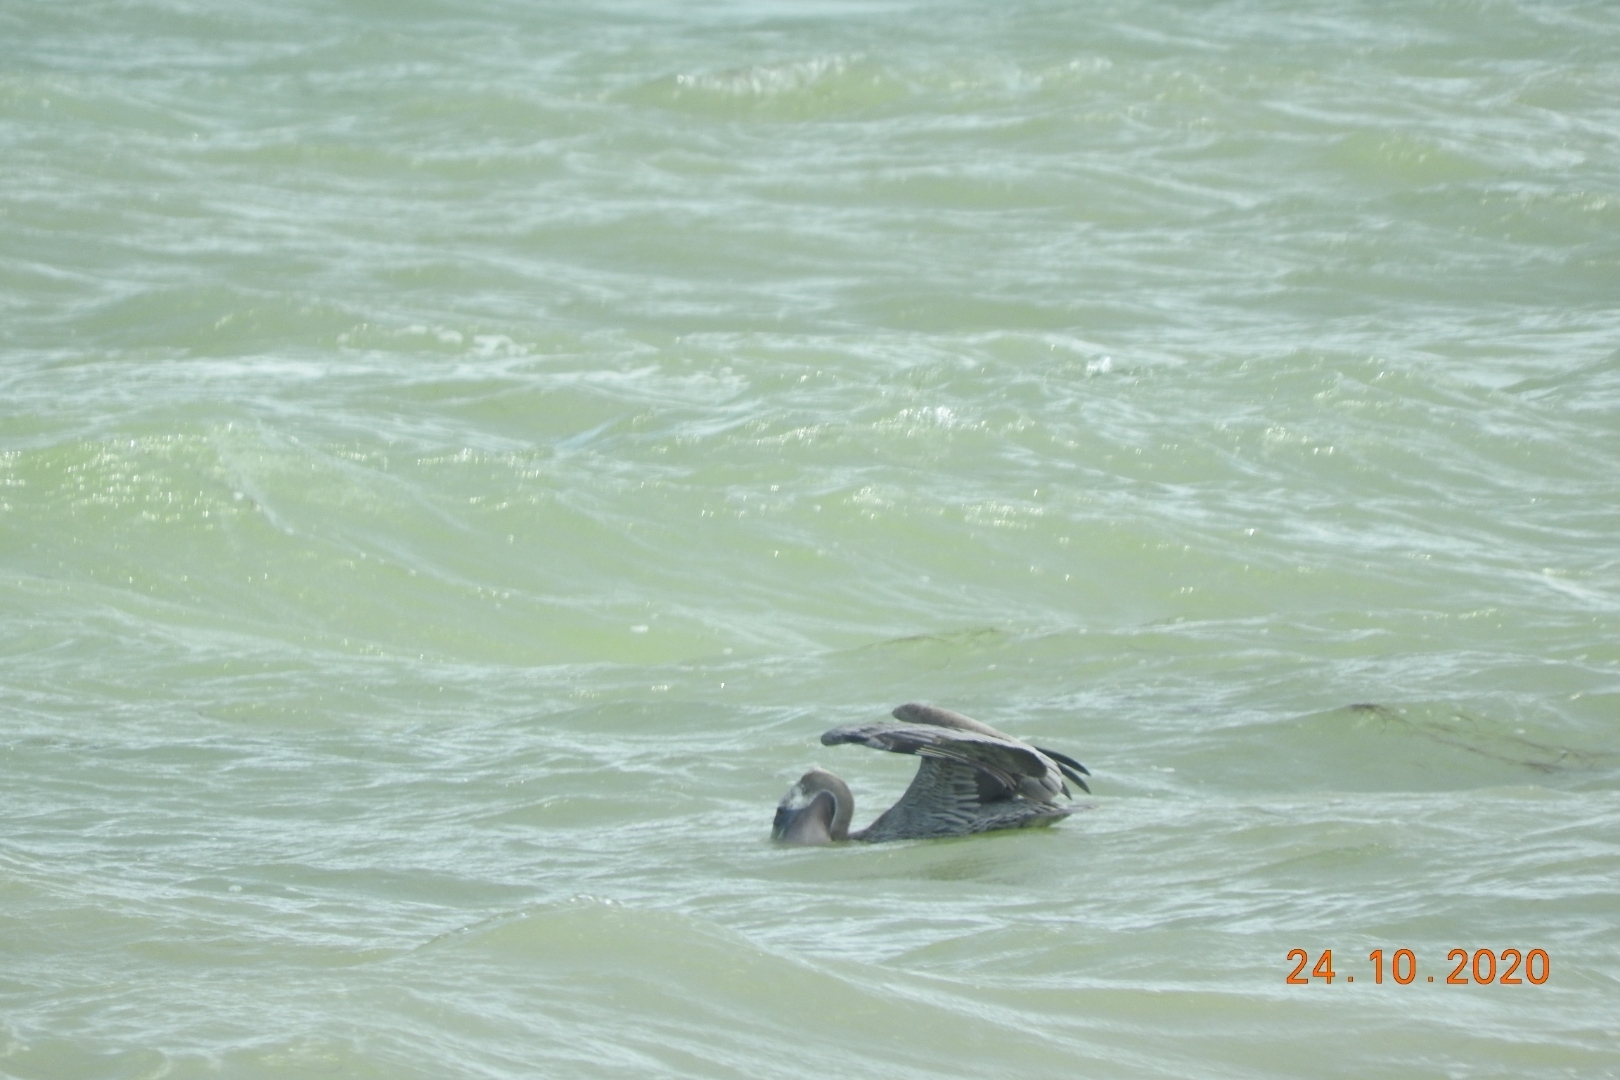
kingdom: Animalia
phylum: Chordata
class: Aves
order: Pelecaniformes
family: Pelecanidae
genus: Pelecanus
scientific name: Pelecanus occidentalis
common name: Brown pelican
